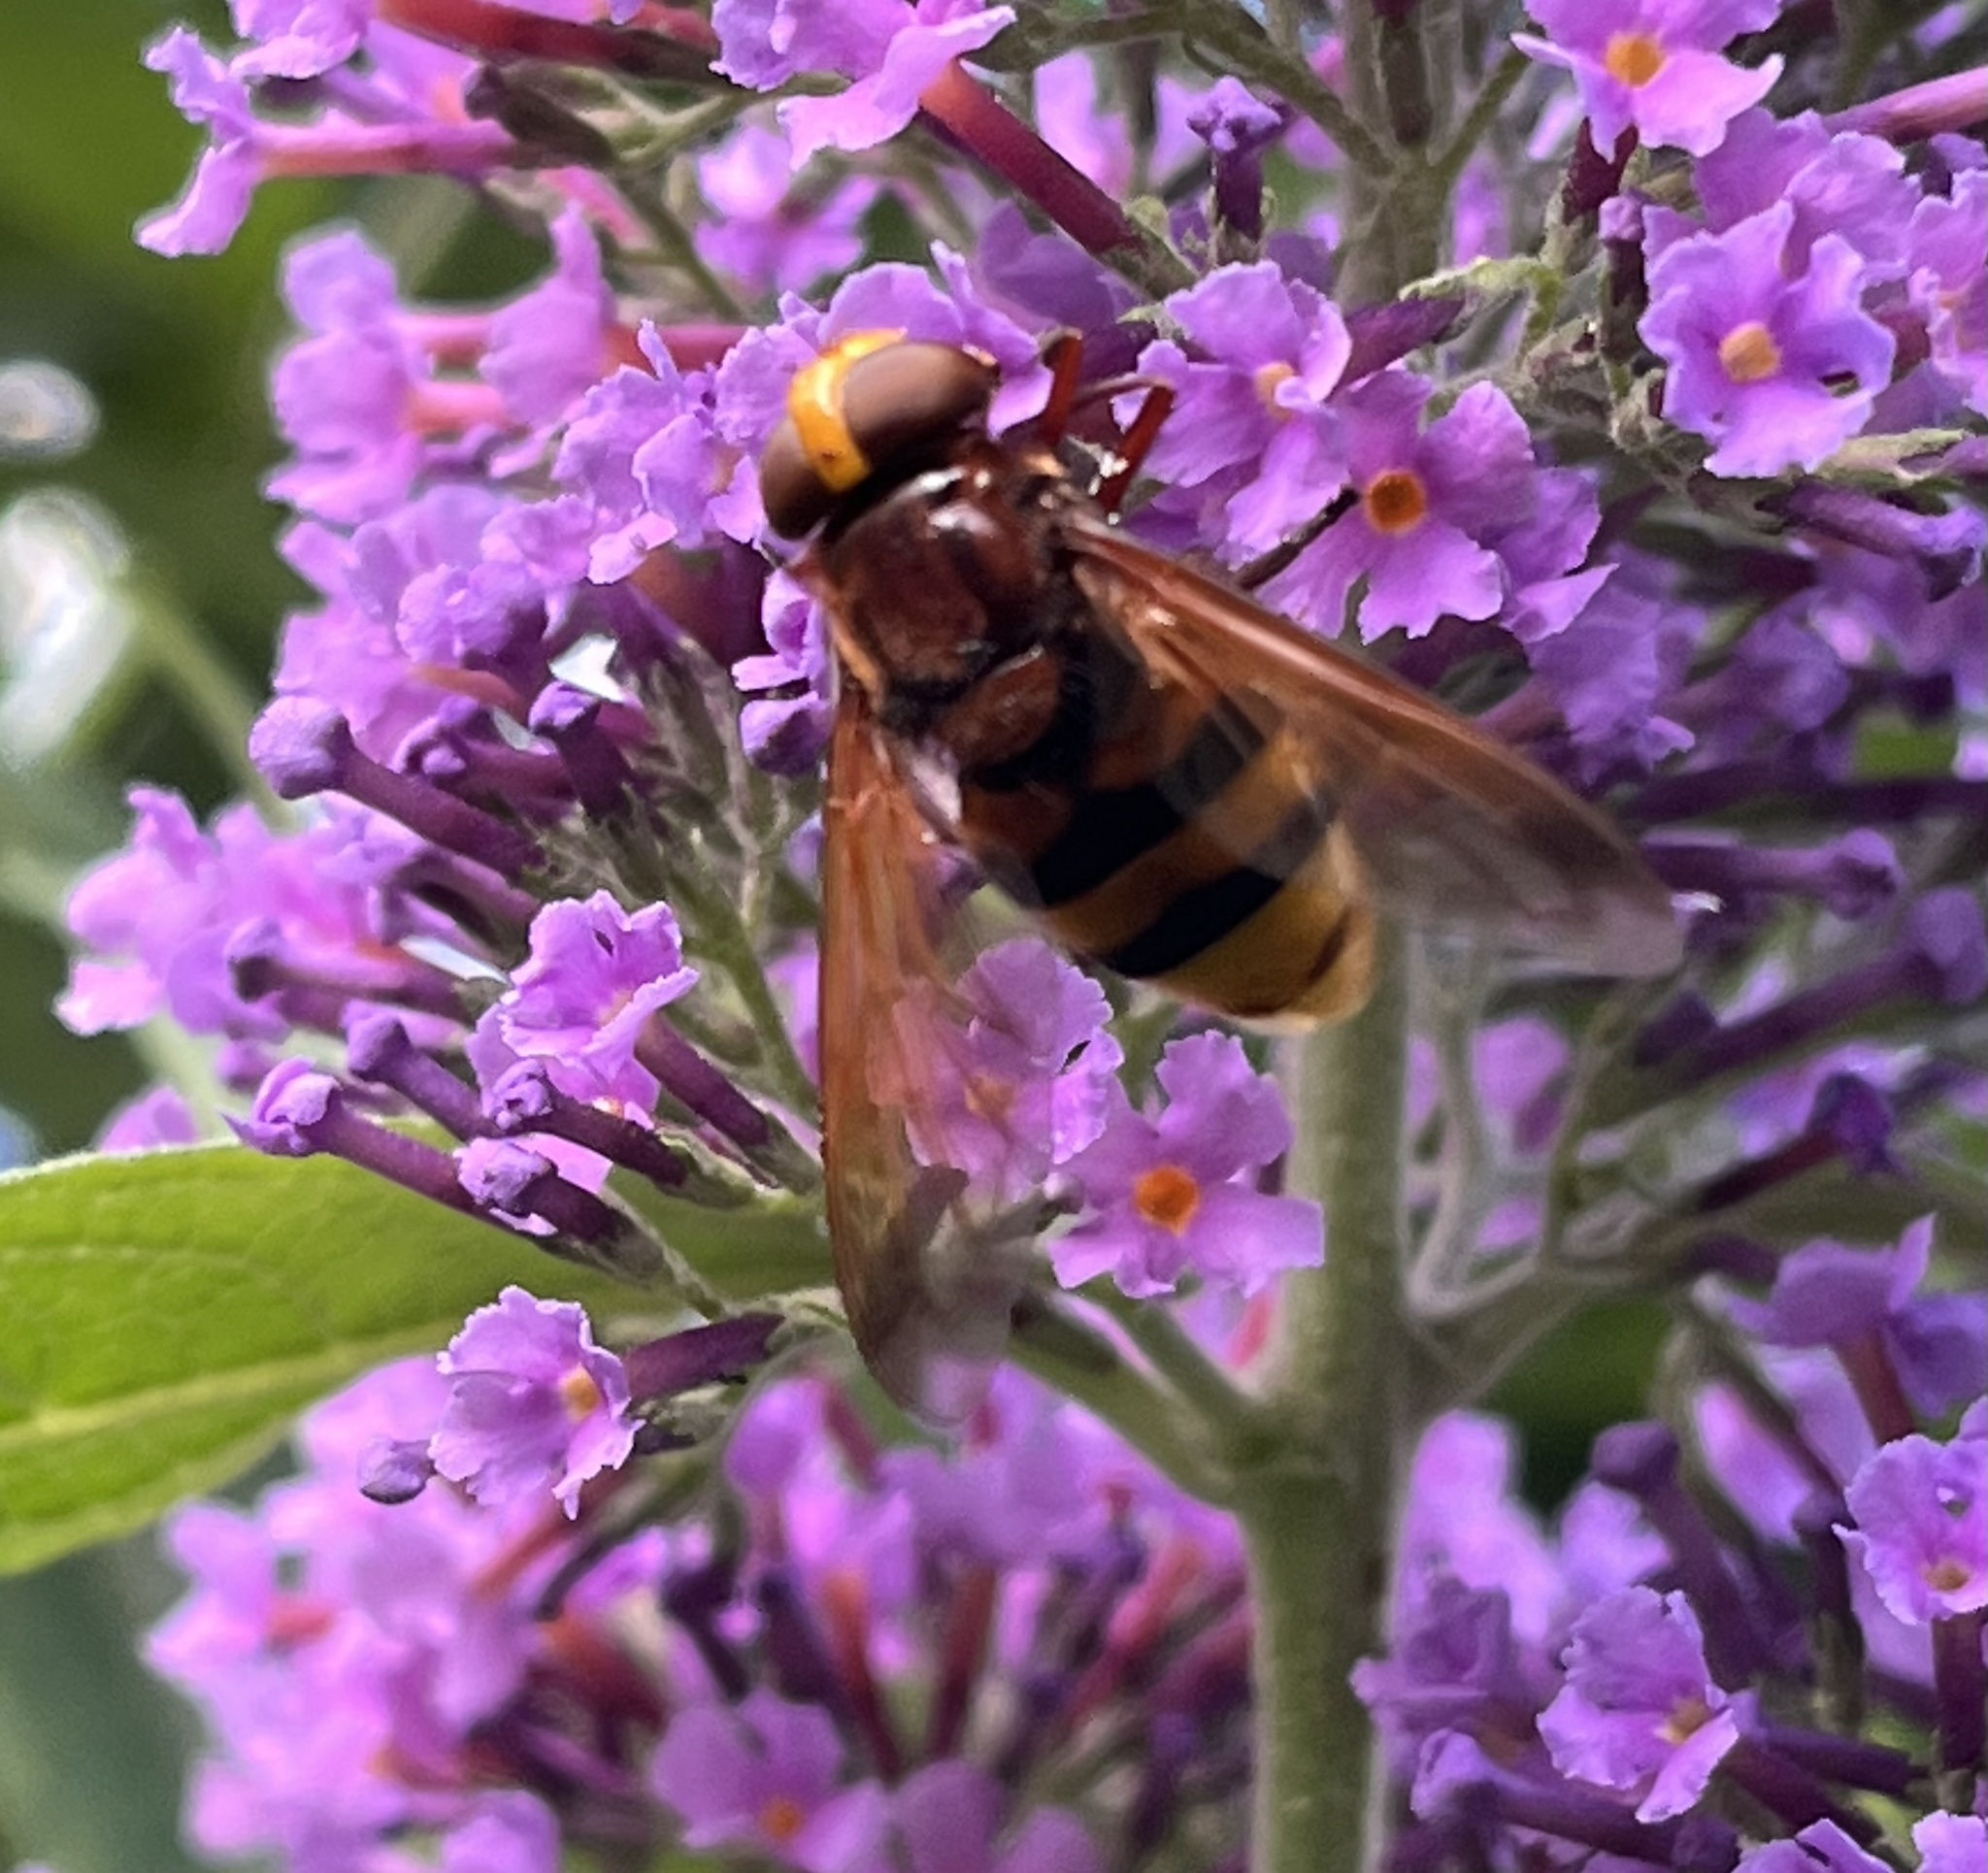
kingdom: Animalia
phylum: Arthropoda
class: Insecta
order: Diptera
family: Syrphidae
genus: Volucella
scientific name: Volucella zonaria
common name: Hornet hoverfly
